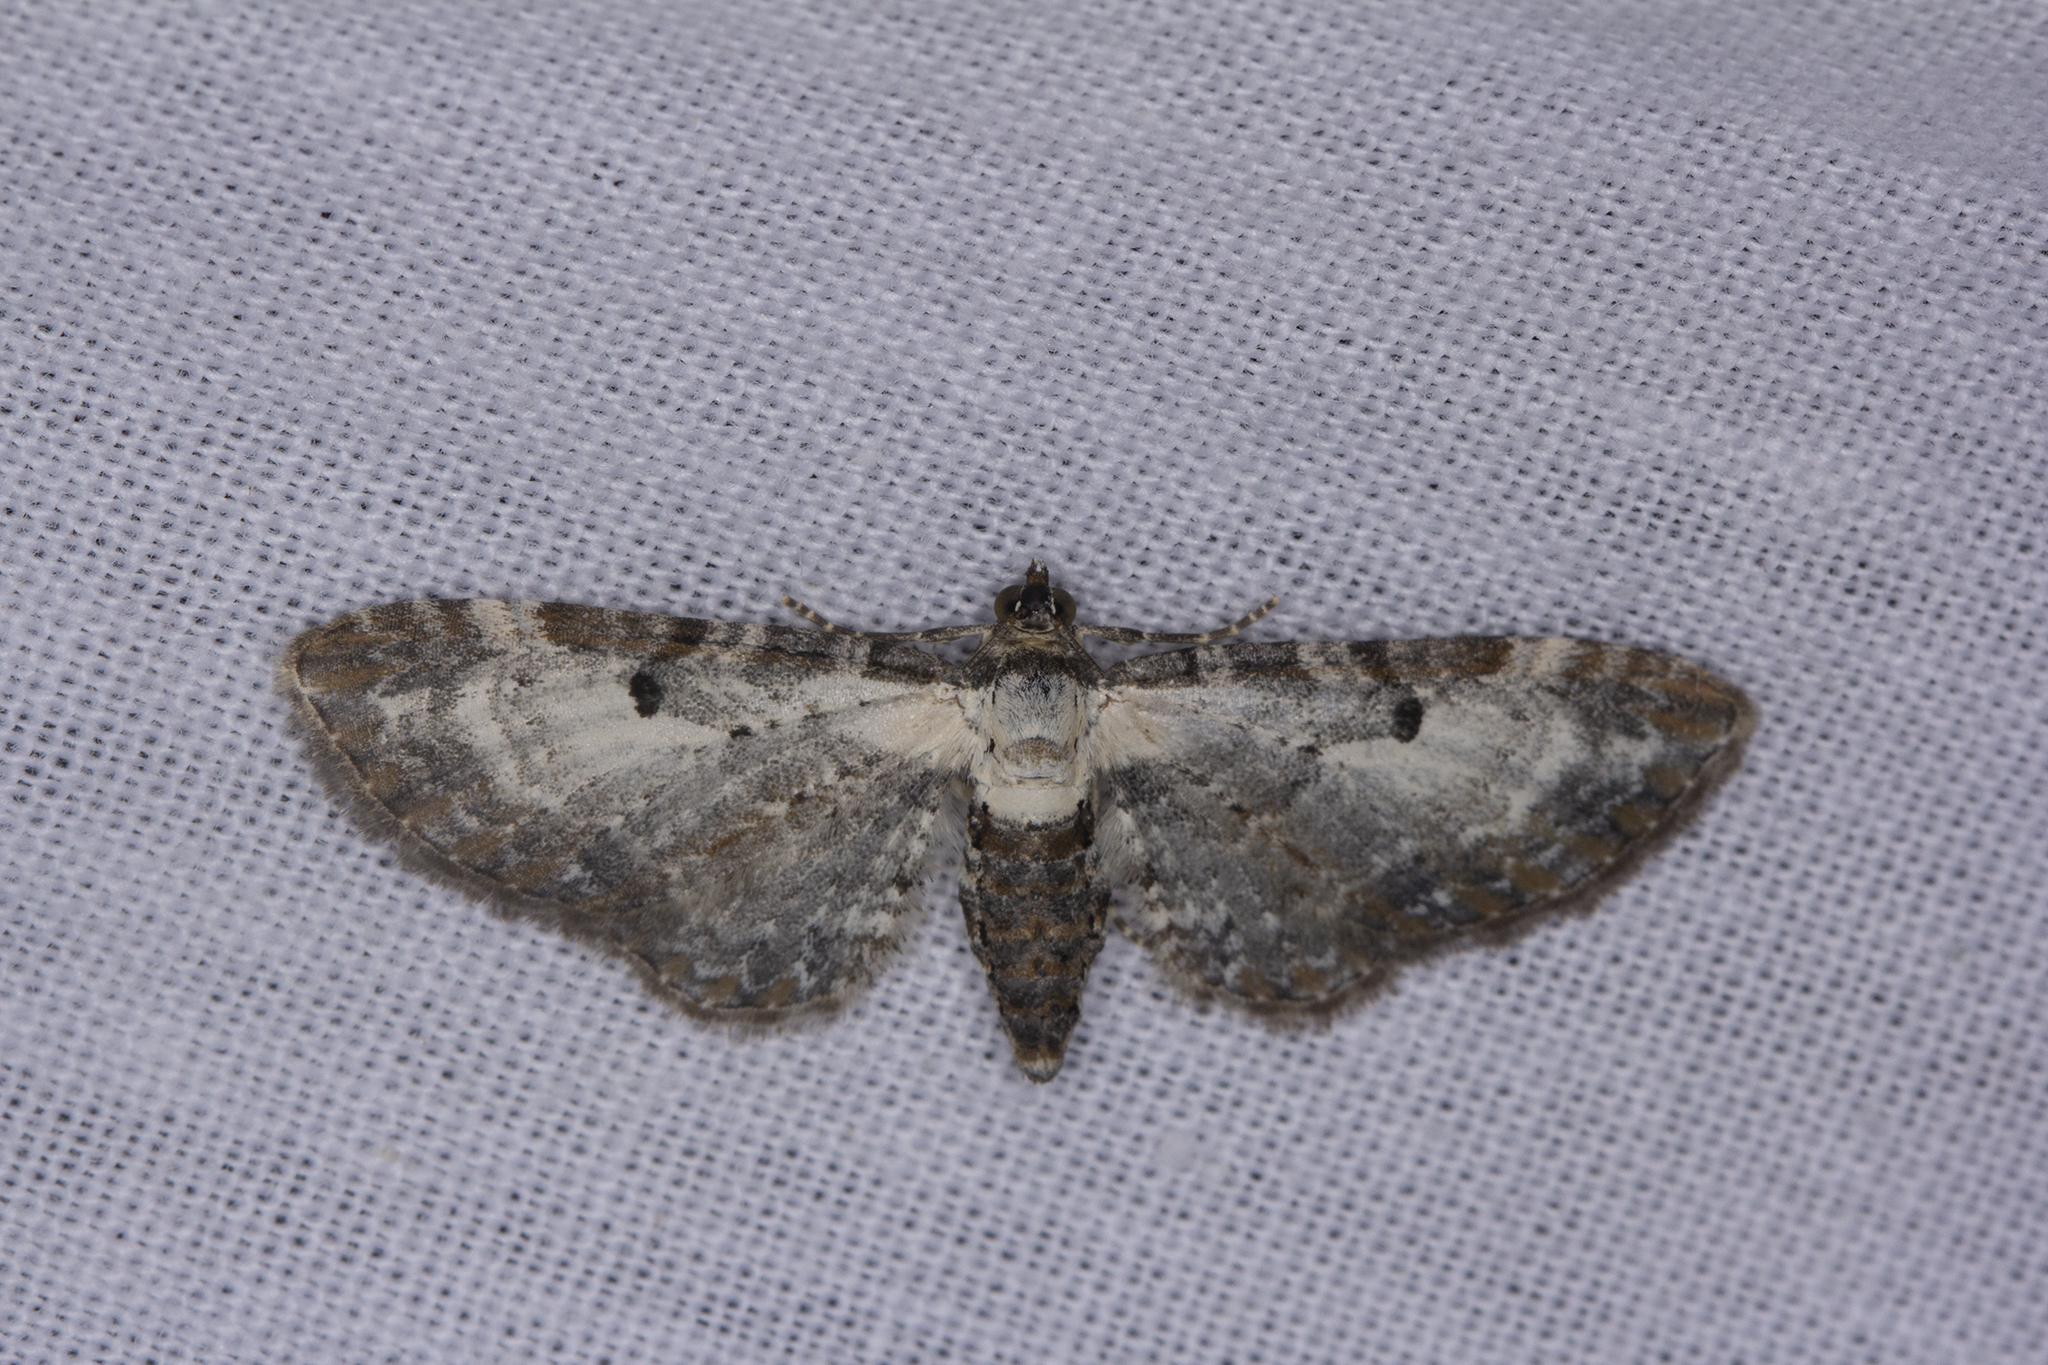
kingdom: Animalia
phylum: Arthropoda
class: Insecta
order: Lepidoptera
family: Geometridae
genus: Eupithecia
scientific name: Eupithecia succenturiata
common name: Bordered pug
